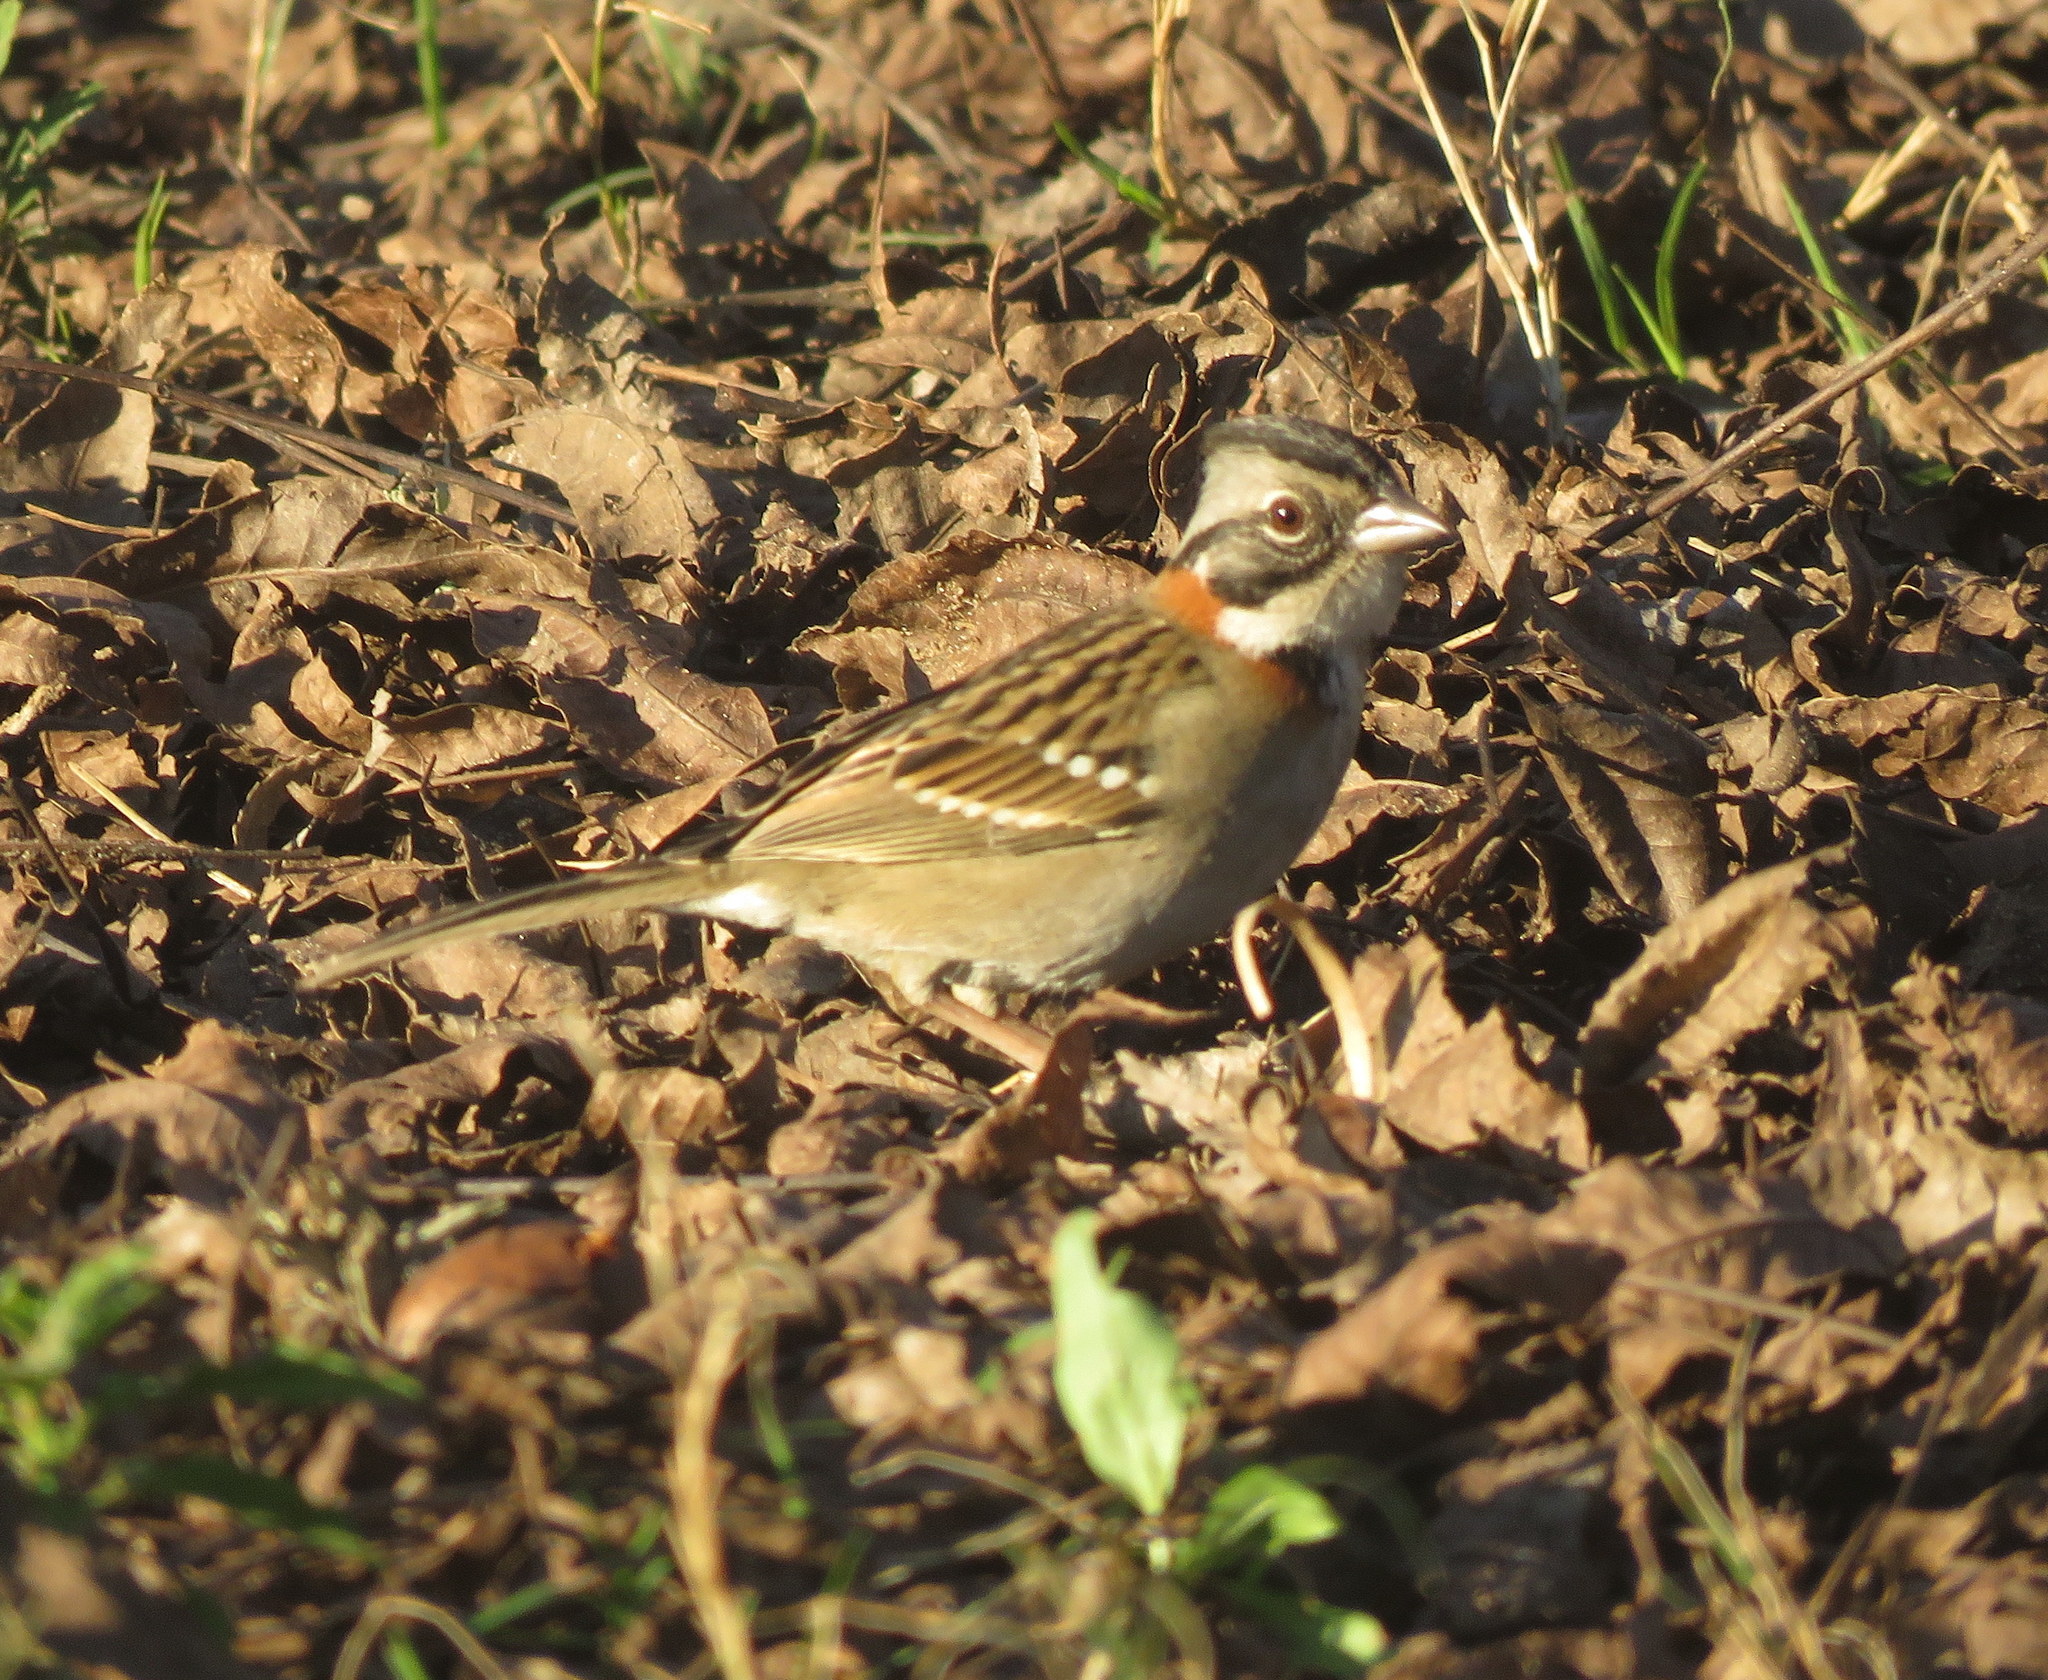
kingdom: Animalia
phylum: Chordata
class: Aves
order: Passeriformes
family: Passerellidae
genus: Zonotrichia
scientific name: Zonotrichia capensis
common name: Rufous-collared sparrow
